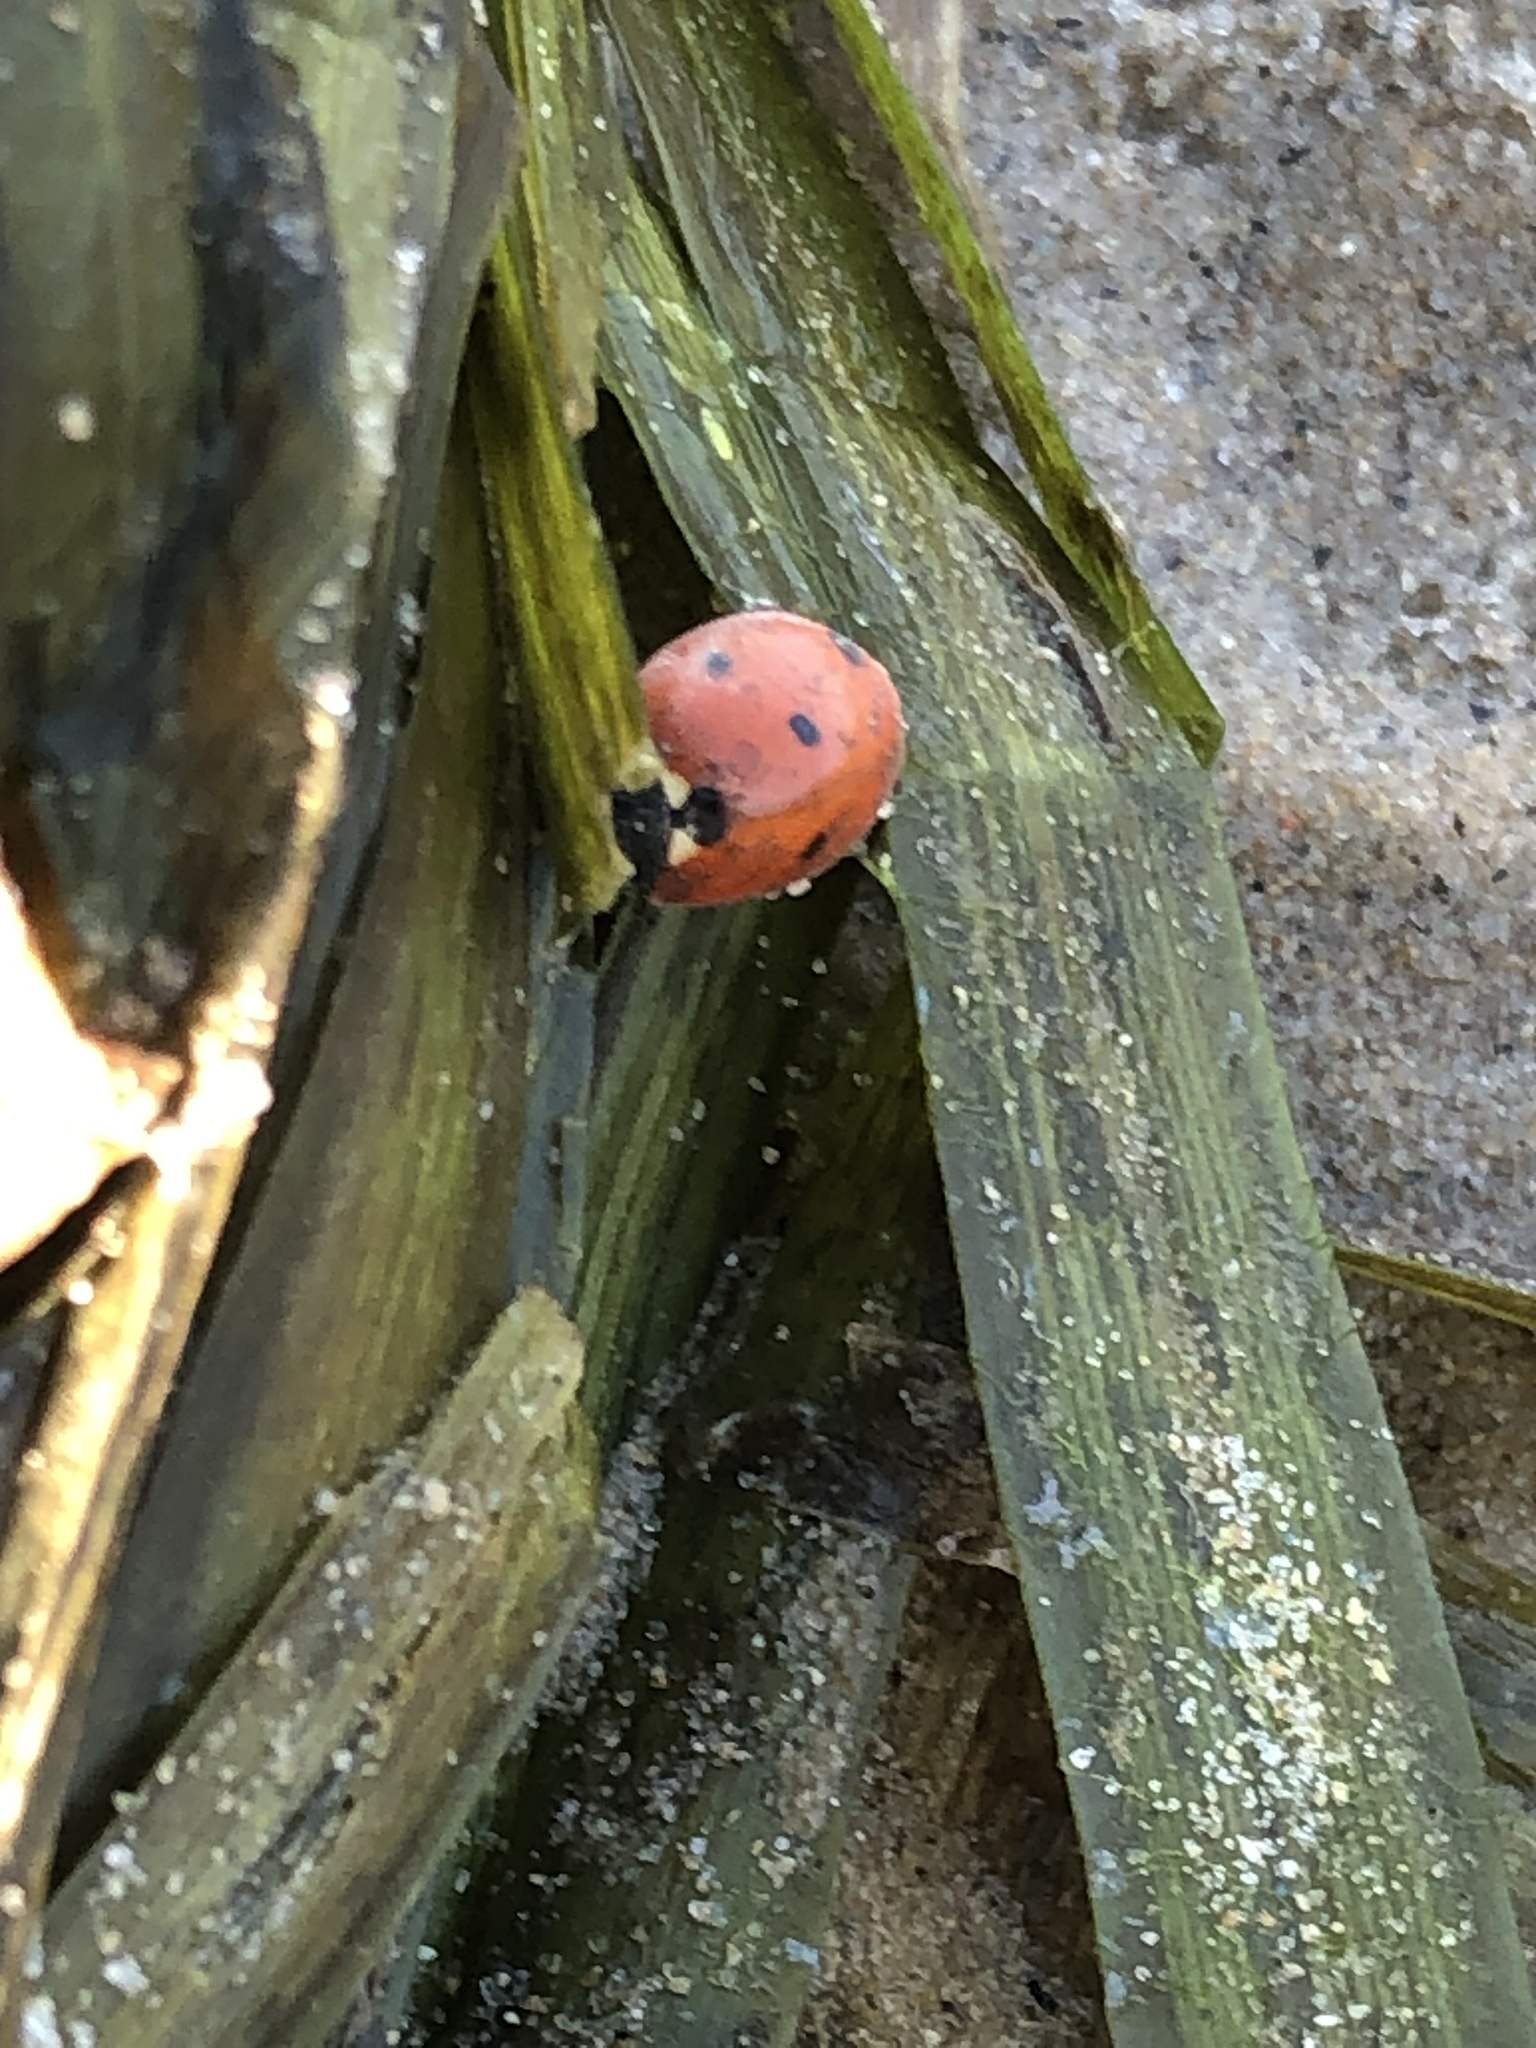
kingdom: Animalia
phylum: Arthropoda
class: Insecta
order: Coleoptera
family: Coccinellidae
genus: Coccinella
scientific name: Coccinella septempunctata
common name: Sevenspotted lady beetle
